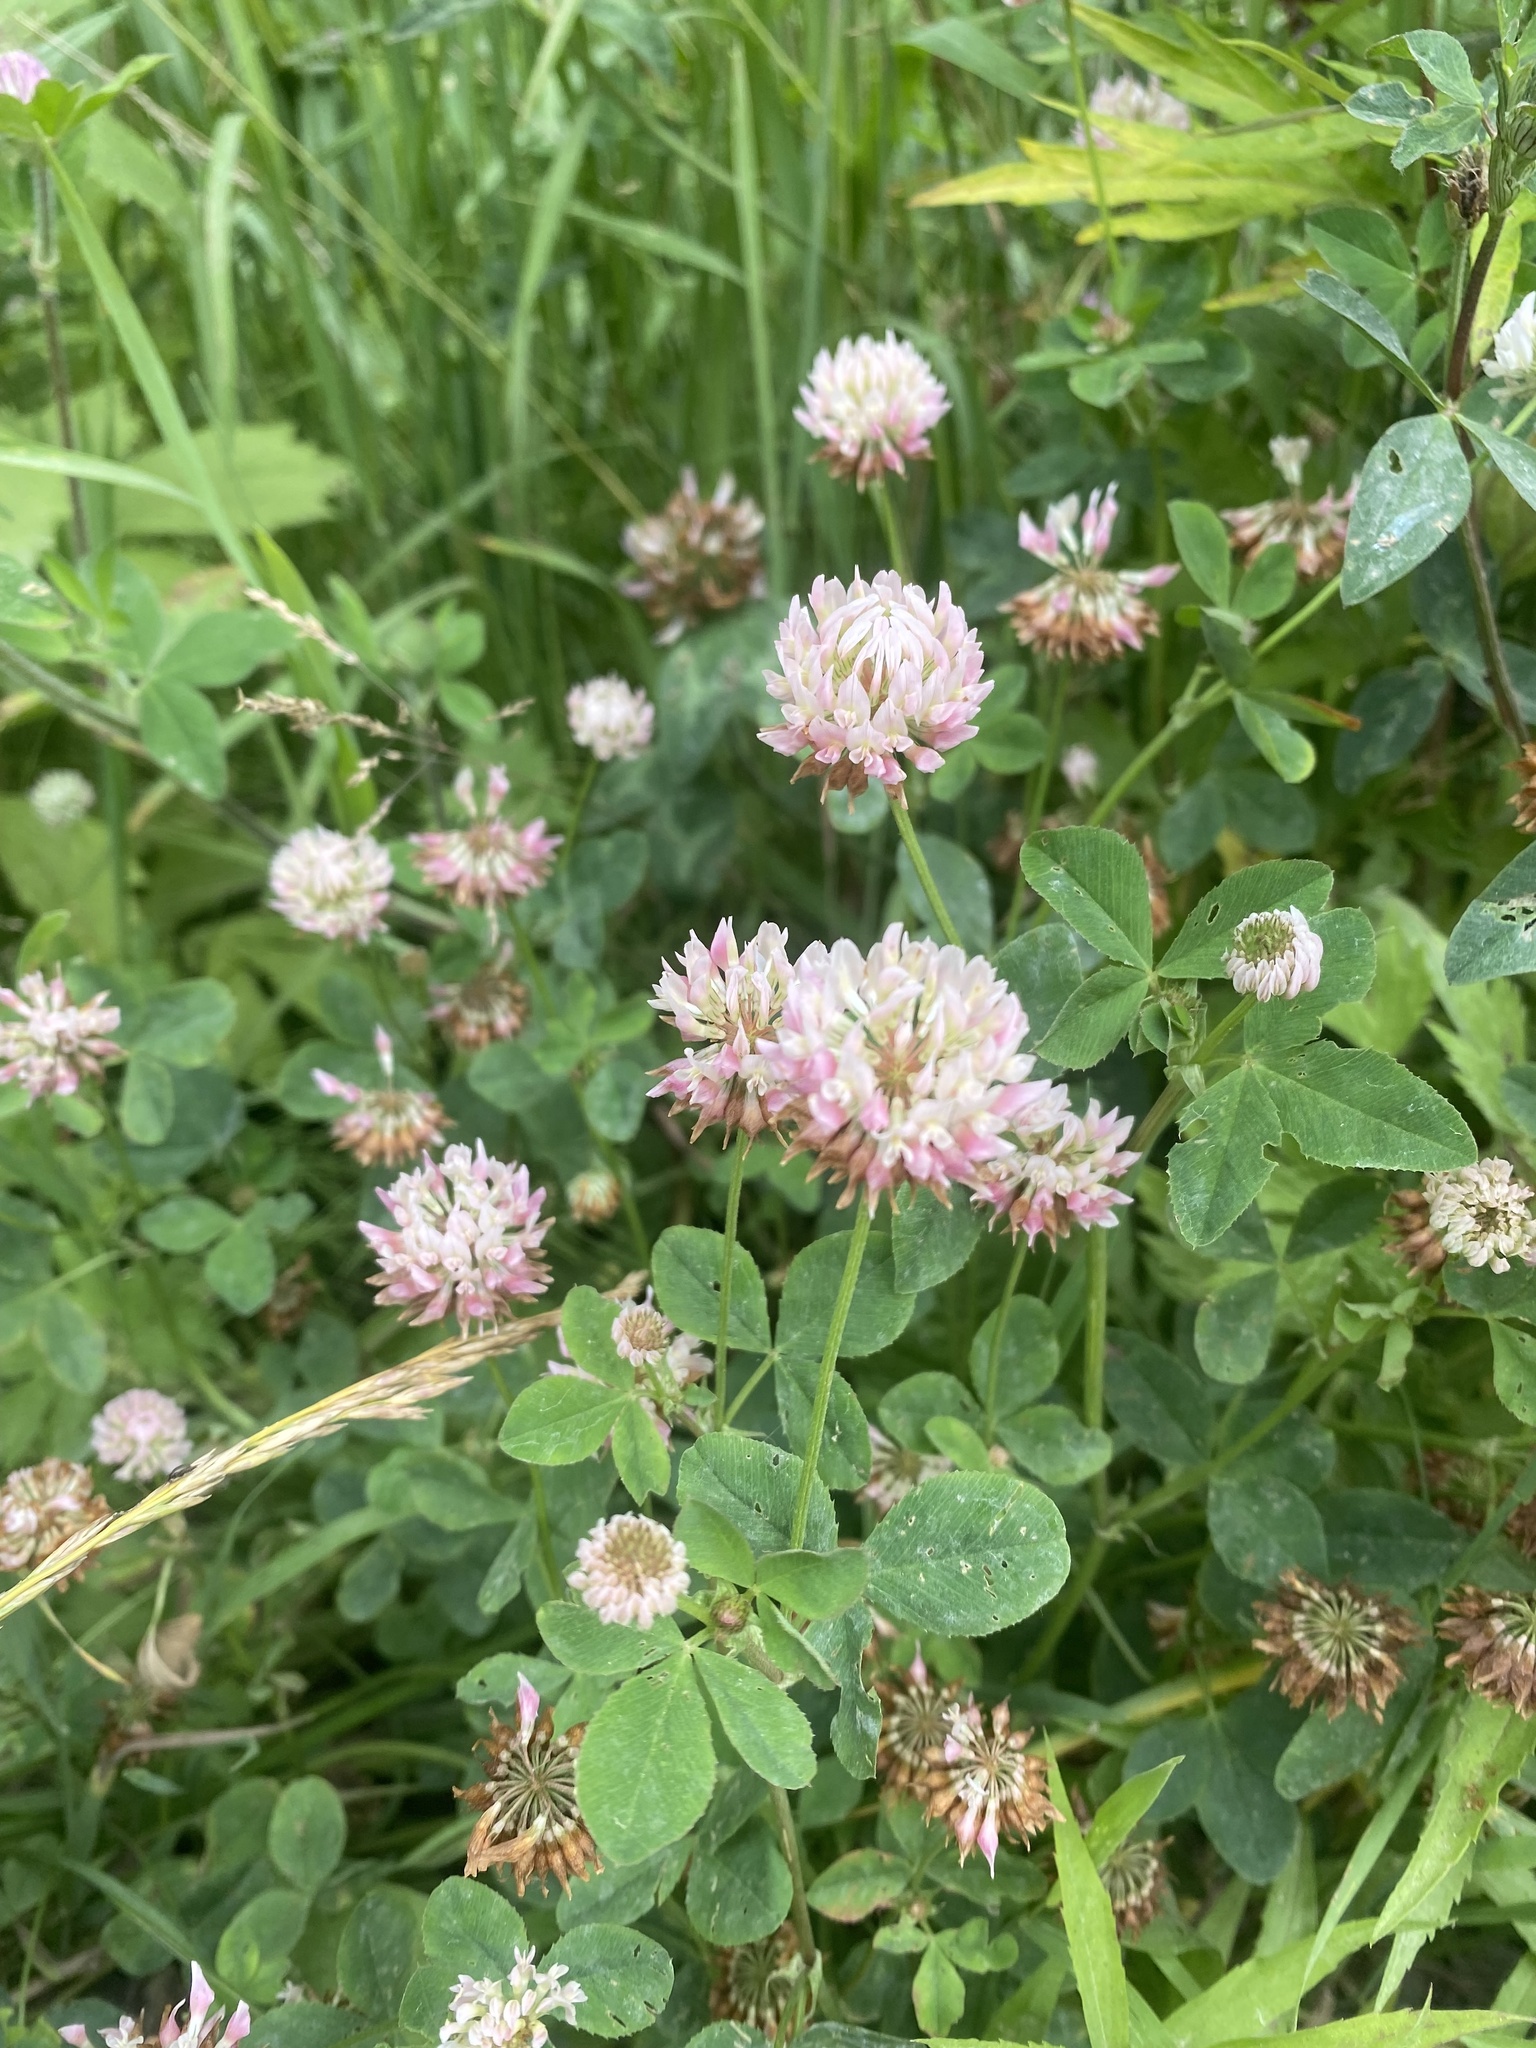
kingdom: Plantae
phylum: Tracheophyta
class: Magnoliopsida
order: Fabales
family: Fabaceae
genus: Trifolium
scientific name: Trifolium hybridum
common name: Alsike clover
